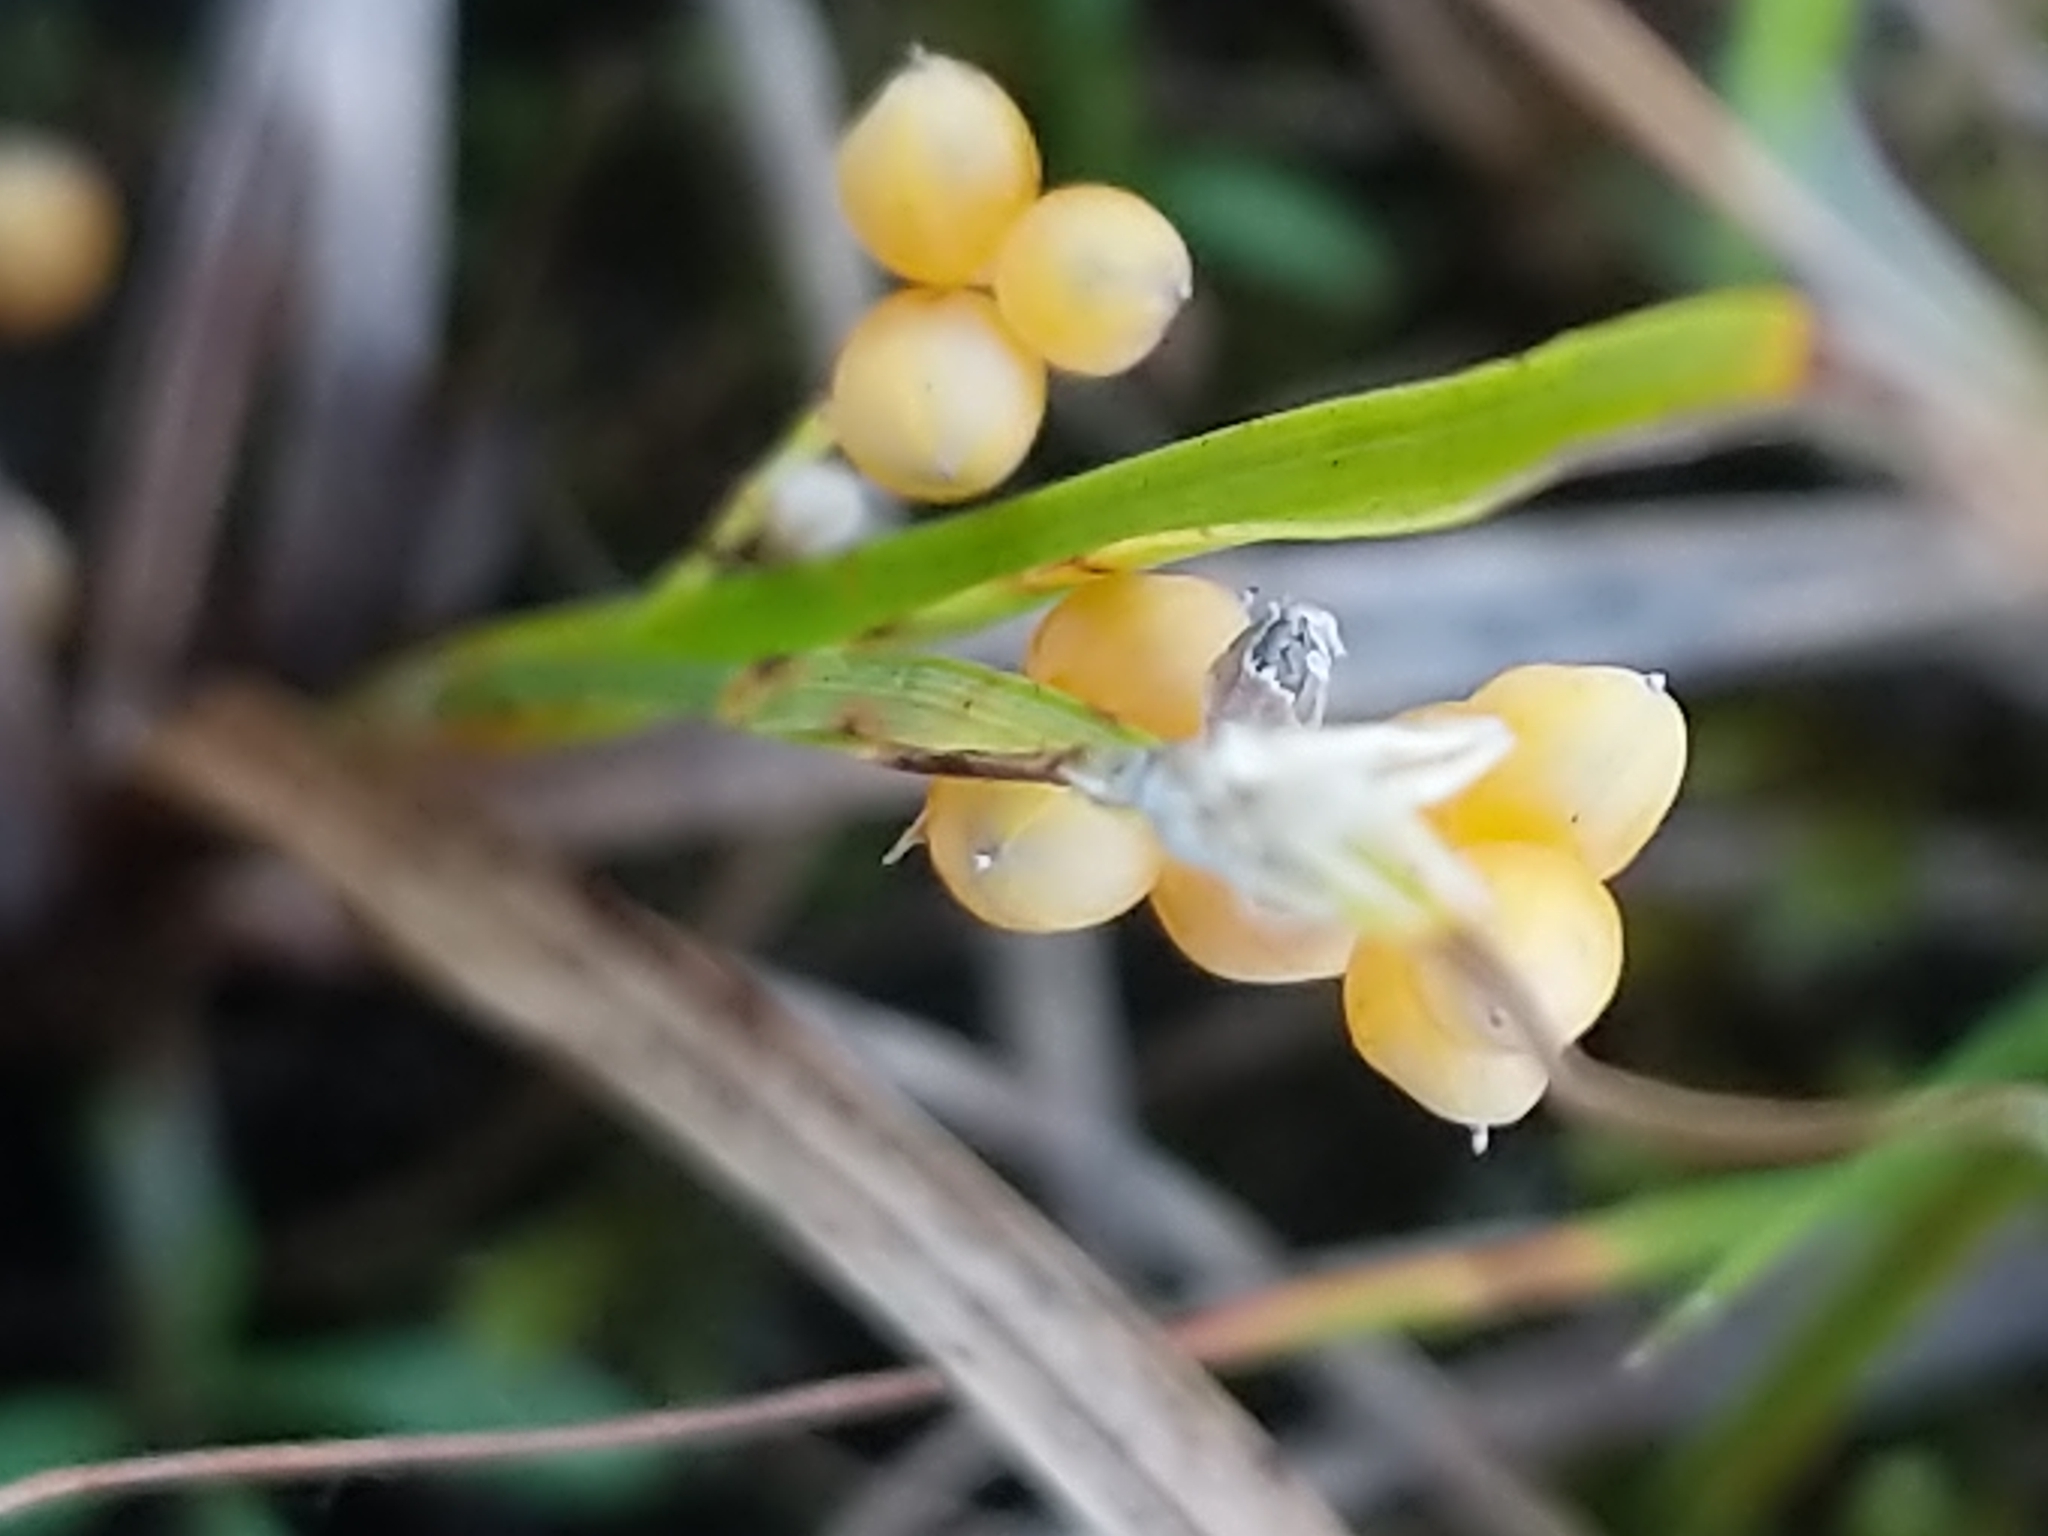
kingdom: Plantae
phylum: Tracheophyta
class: Liliopsida
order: Poales
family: Cyperaceae
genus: Carex
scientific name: Carex aurea
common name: Golden sedge
